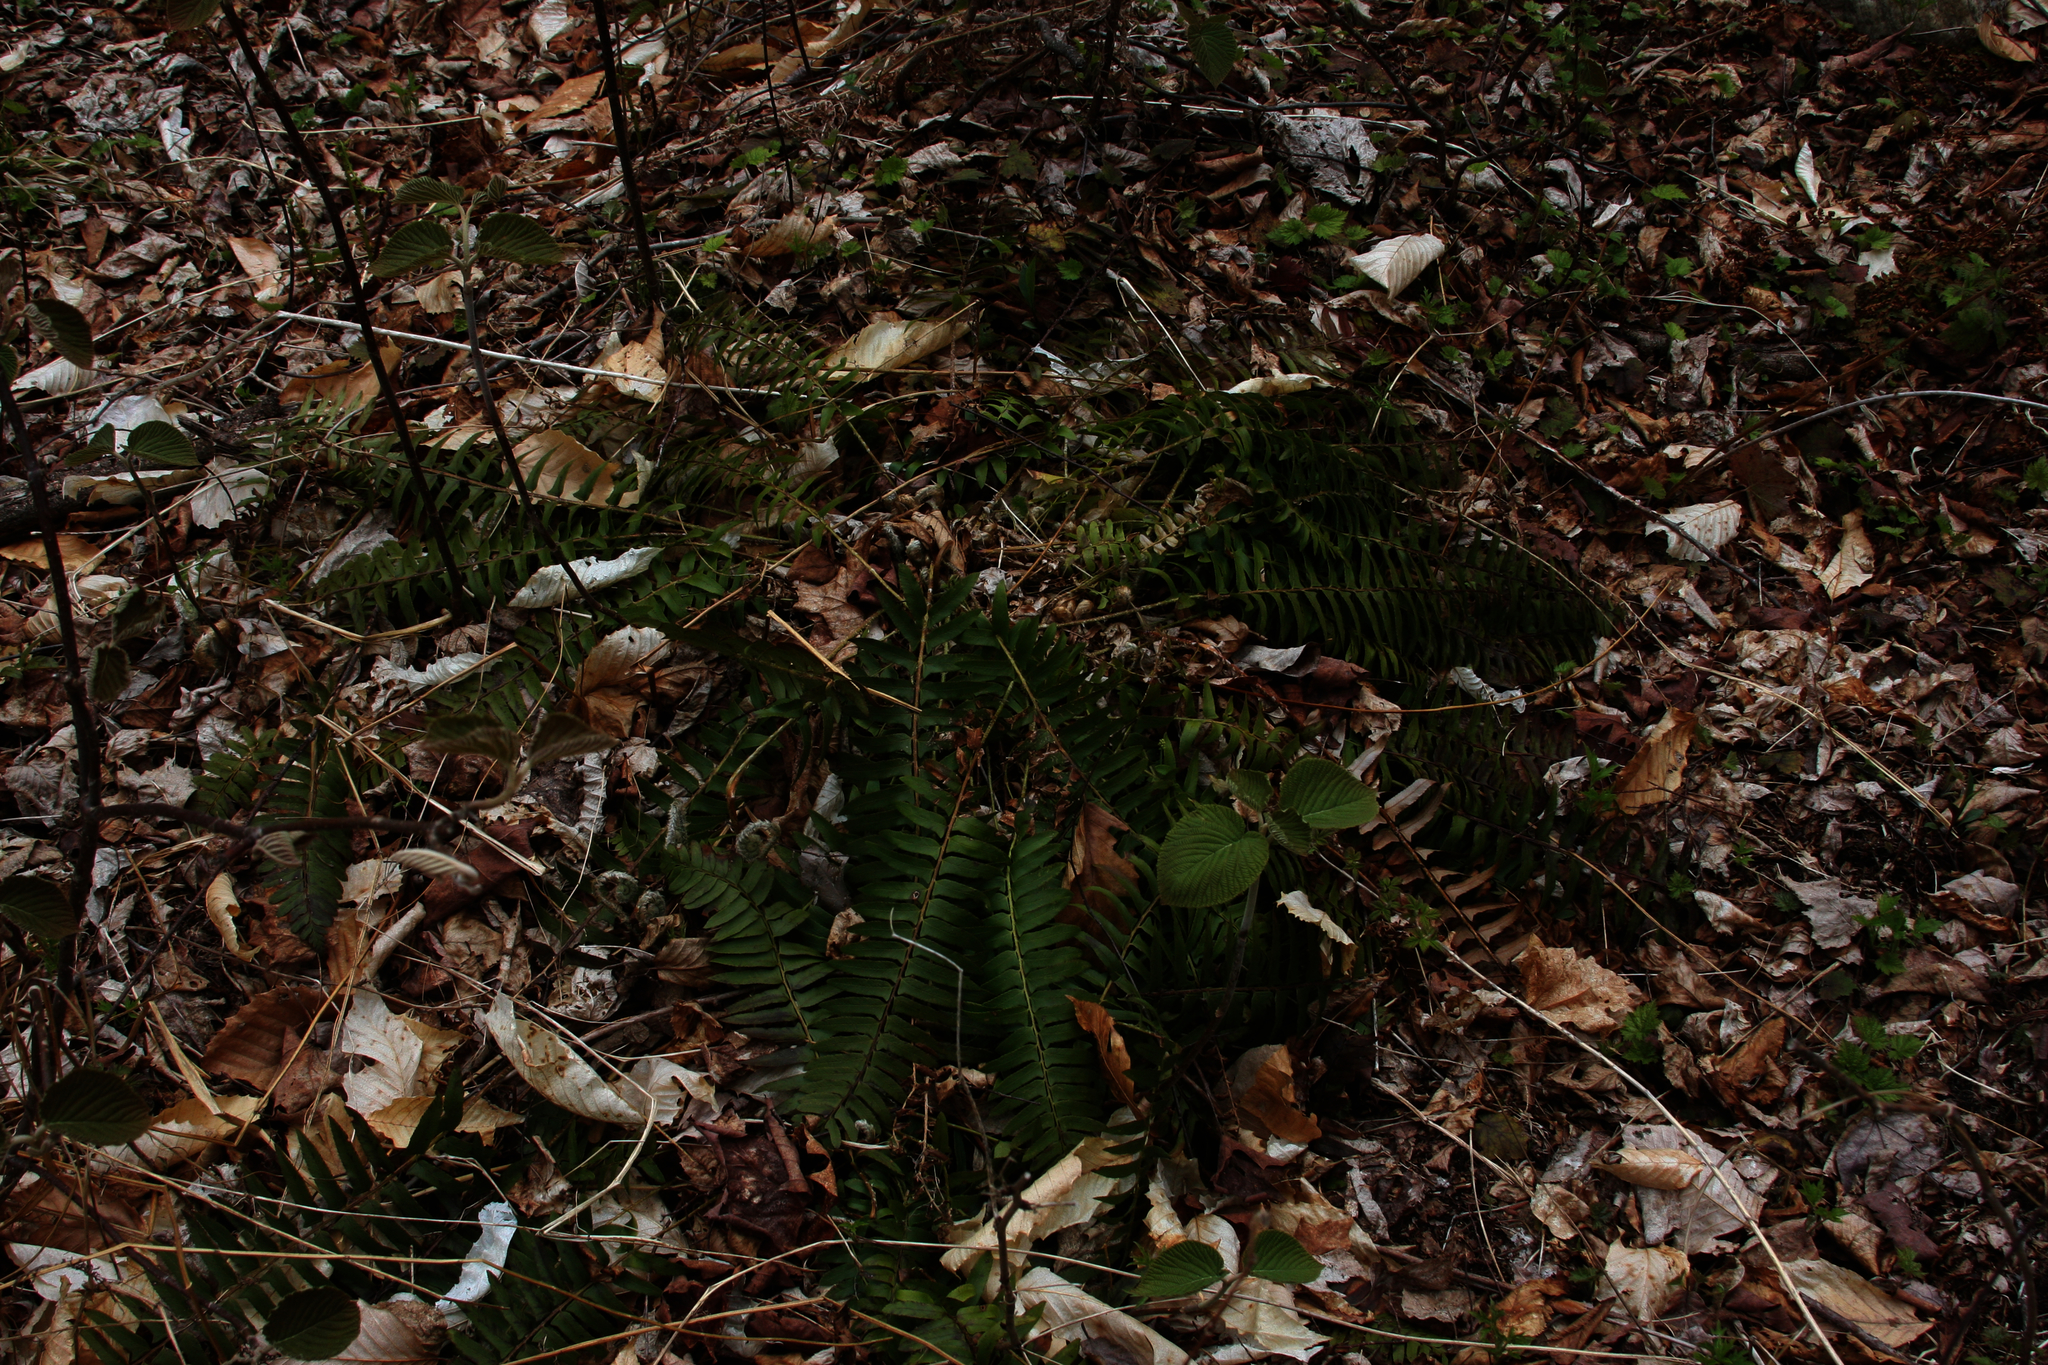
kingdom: Plantae
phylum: Tracheophyta
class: Polypodiopsida
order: Polypodiales
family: Dryopteridaceae
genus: Polystichum
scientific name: Polystichum acrostichoides
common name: Christmas fern
